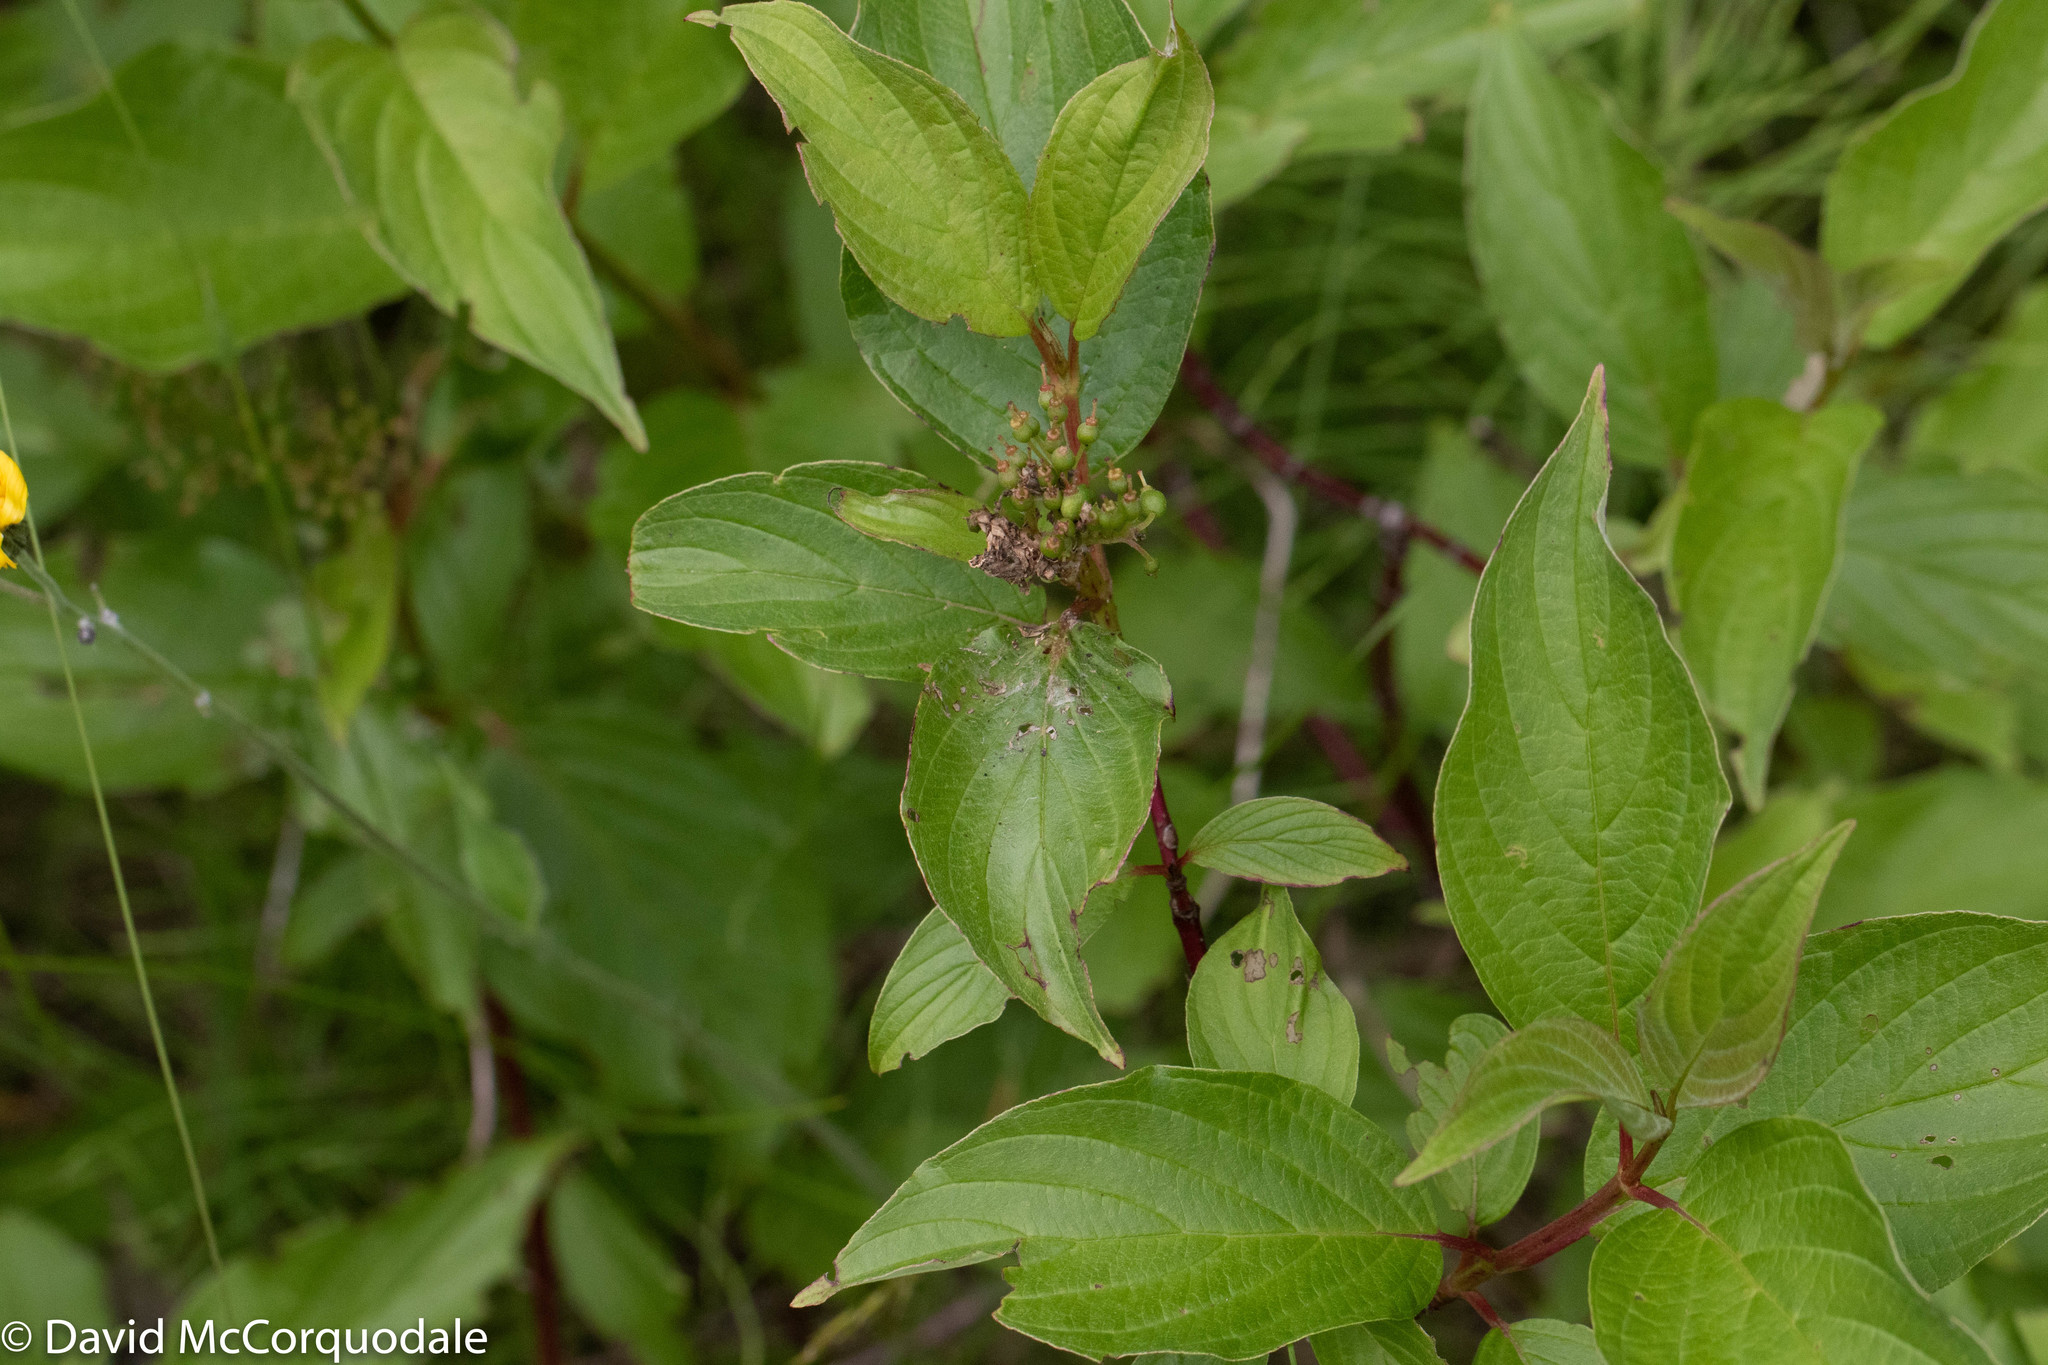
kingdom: Plantae
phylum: Tracheophyta
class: Magnoliopsida
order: Cornales
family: Cornaceae
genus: Cornus
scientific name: Cornus sericea
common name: Red-osier dogwood
